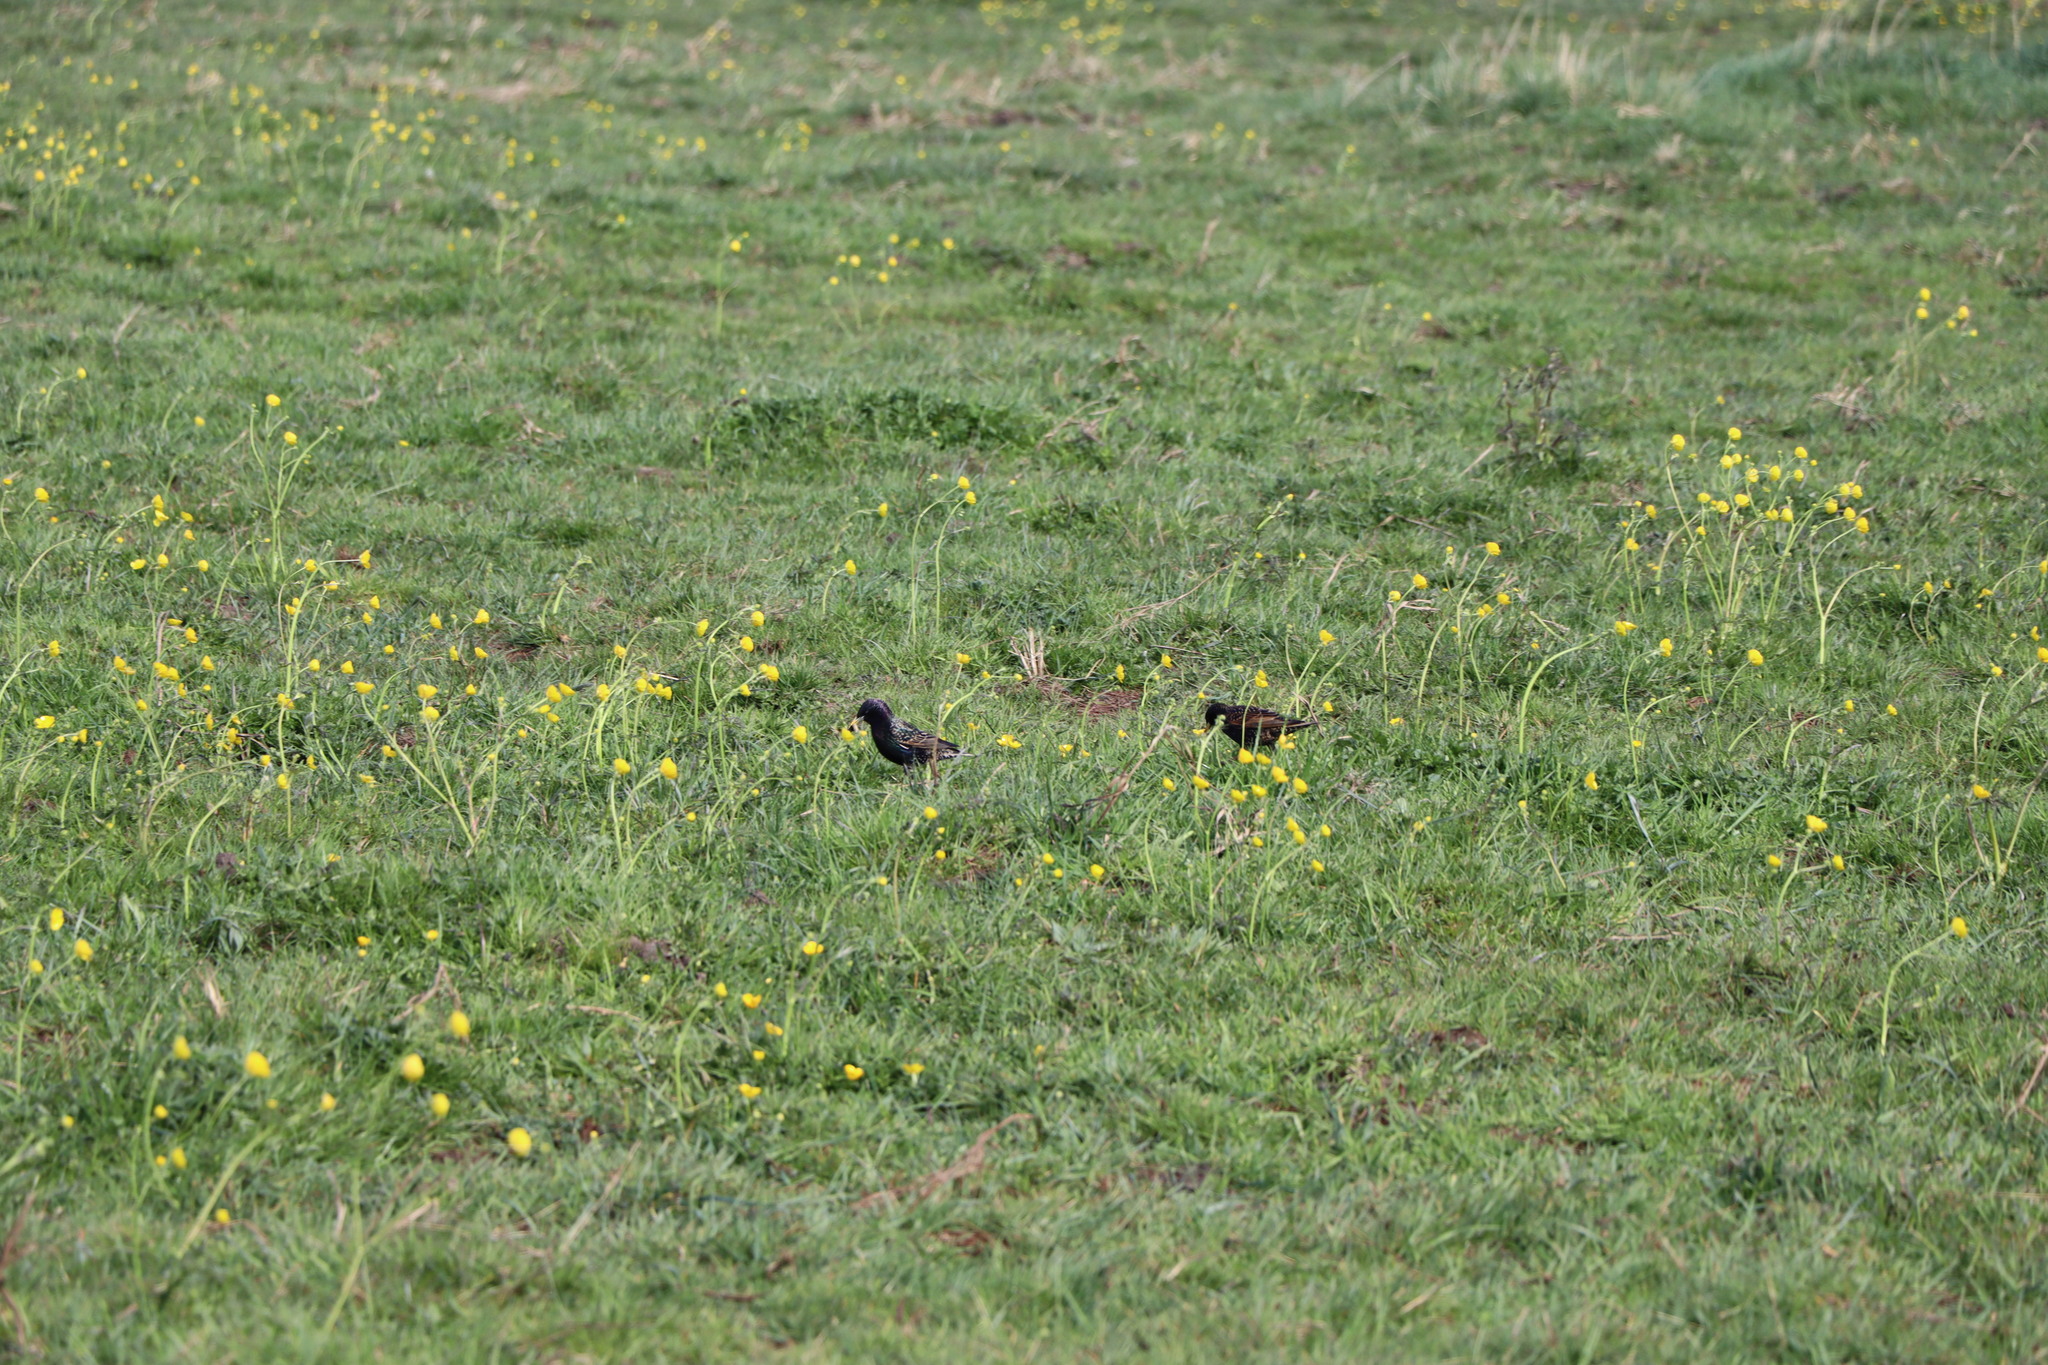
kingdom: Animalia
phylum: Chordata
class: Aves
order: Passeriformes
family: Sturnidae
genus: Sturnus
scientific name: Sturnus vulgaris
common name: Common starling
